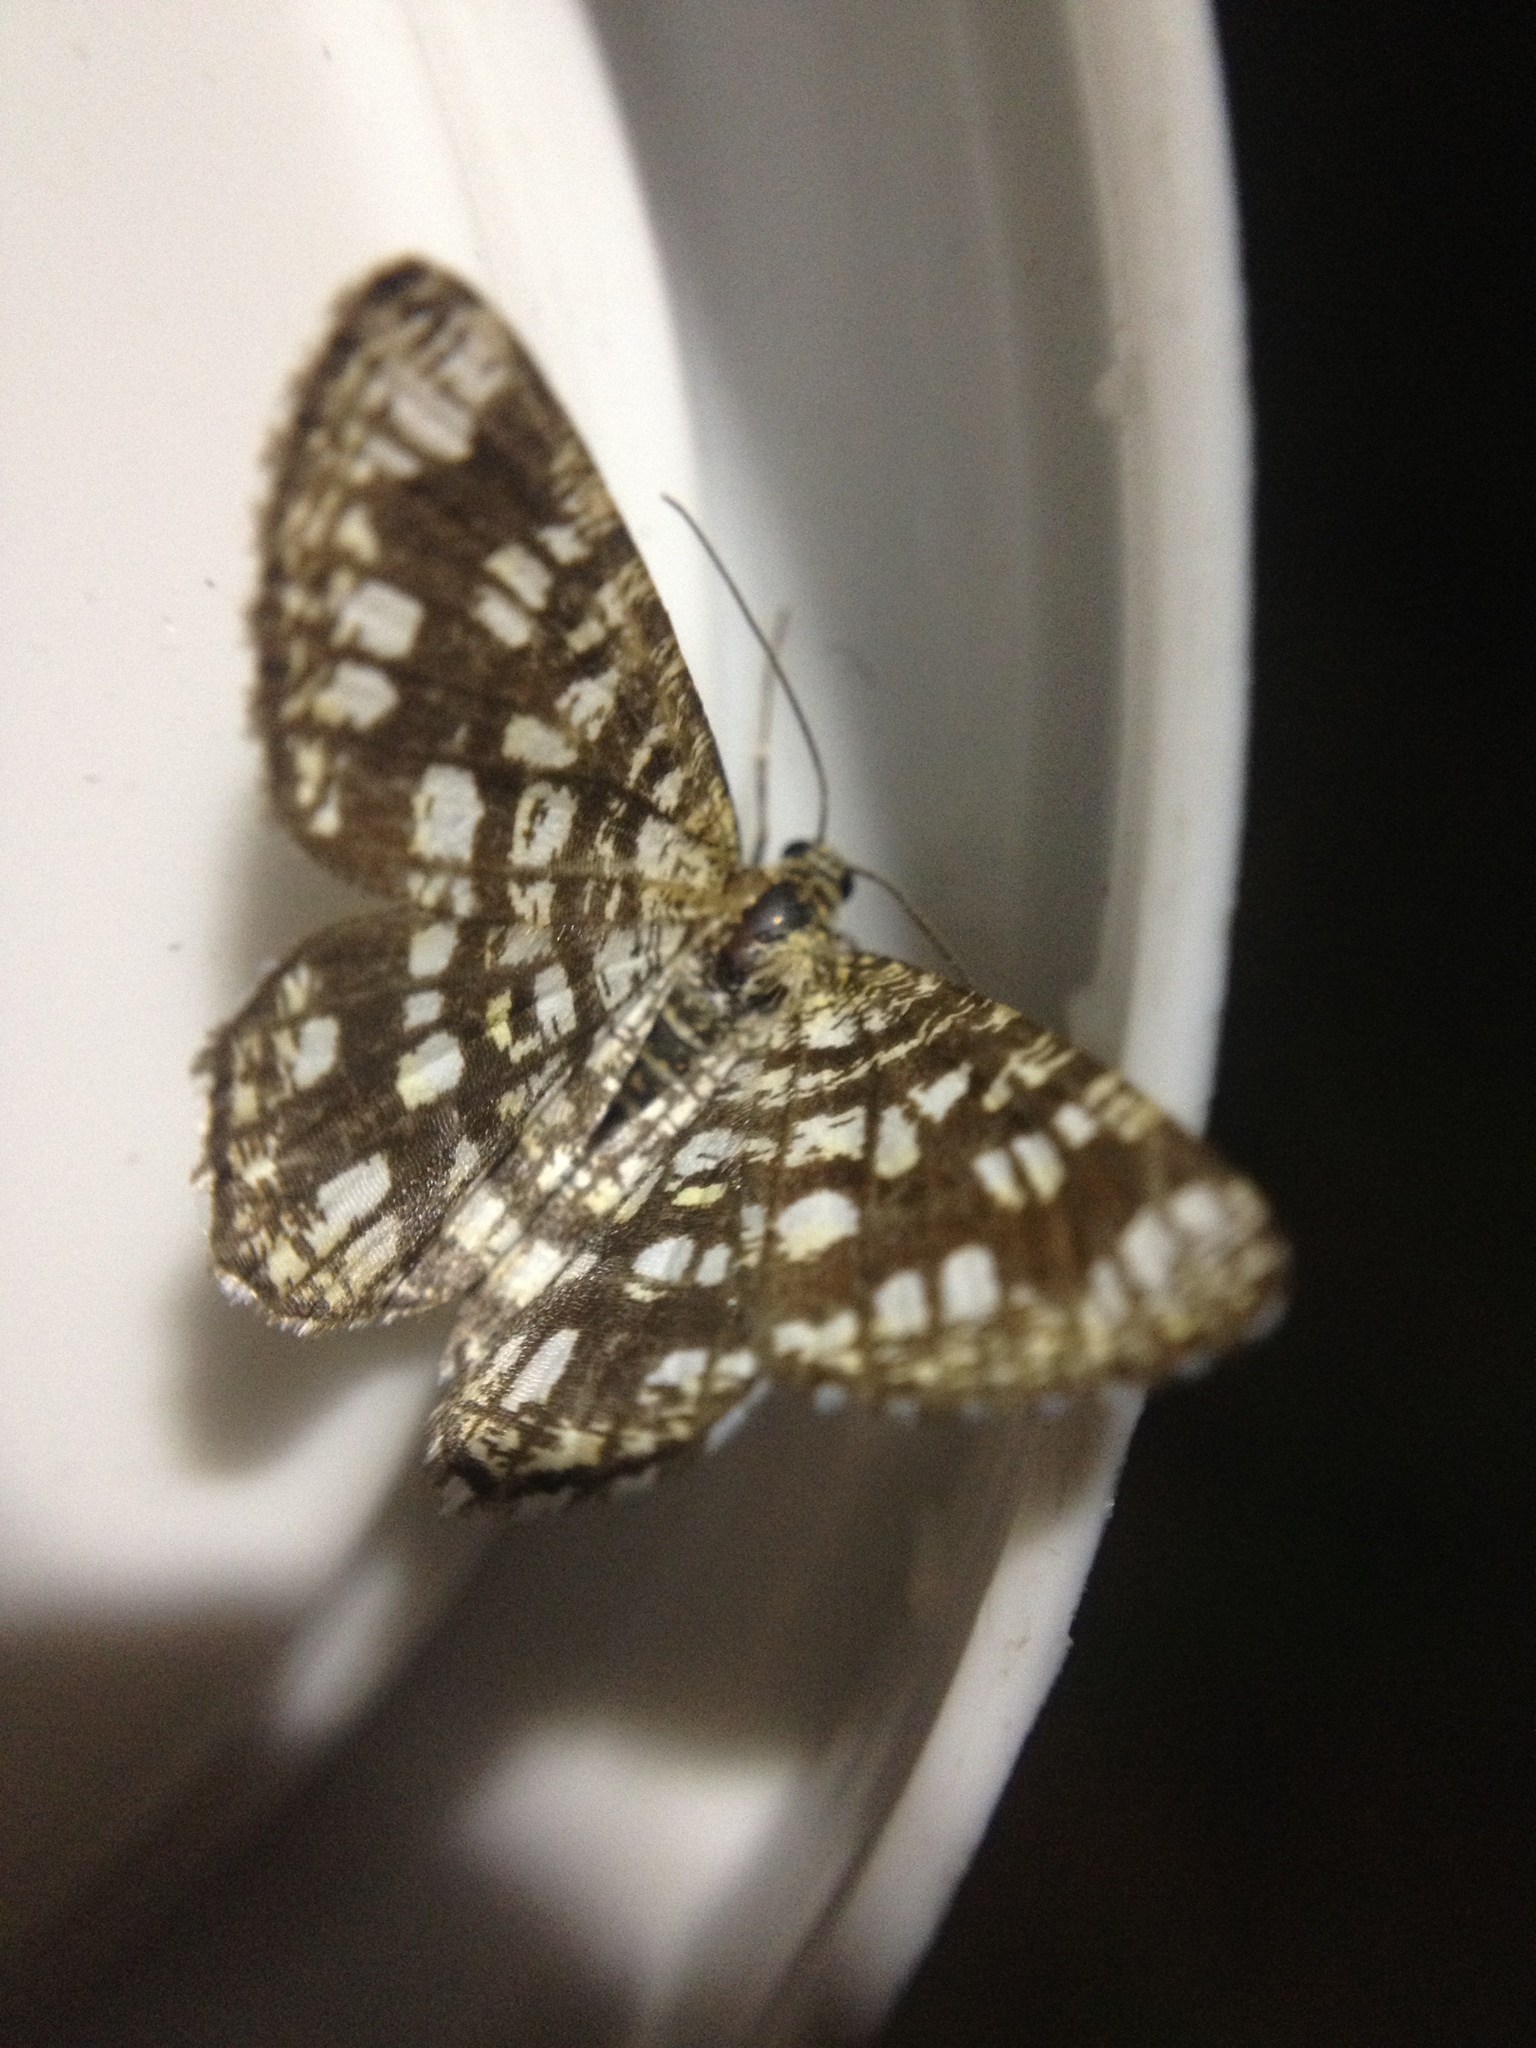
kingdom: Animalia
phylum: Arthropoda
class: Insecta
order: Lepidoptera
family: Geometridae
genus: Chiasmia
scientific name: Chiasmia clathrata
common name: Latticed heath
